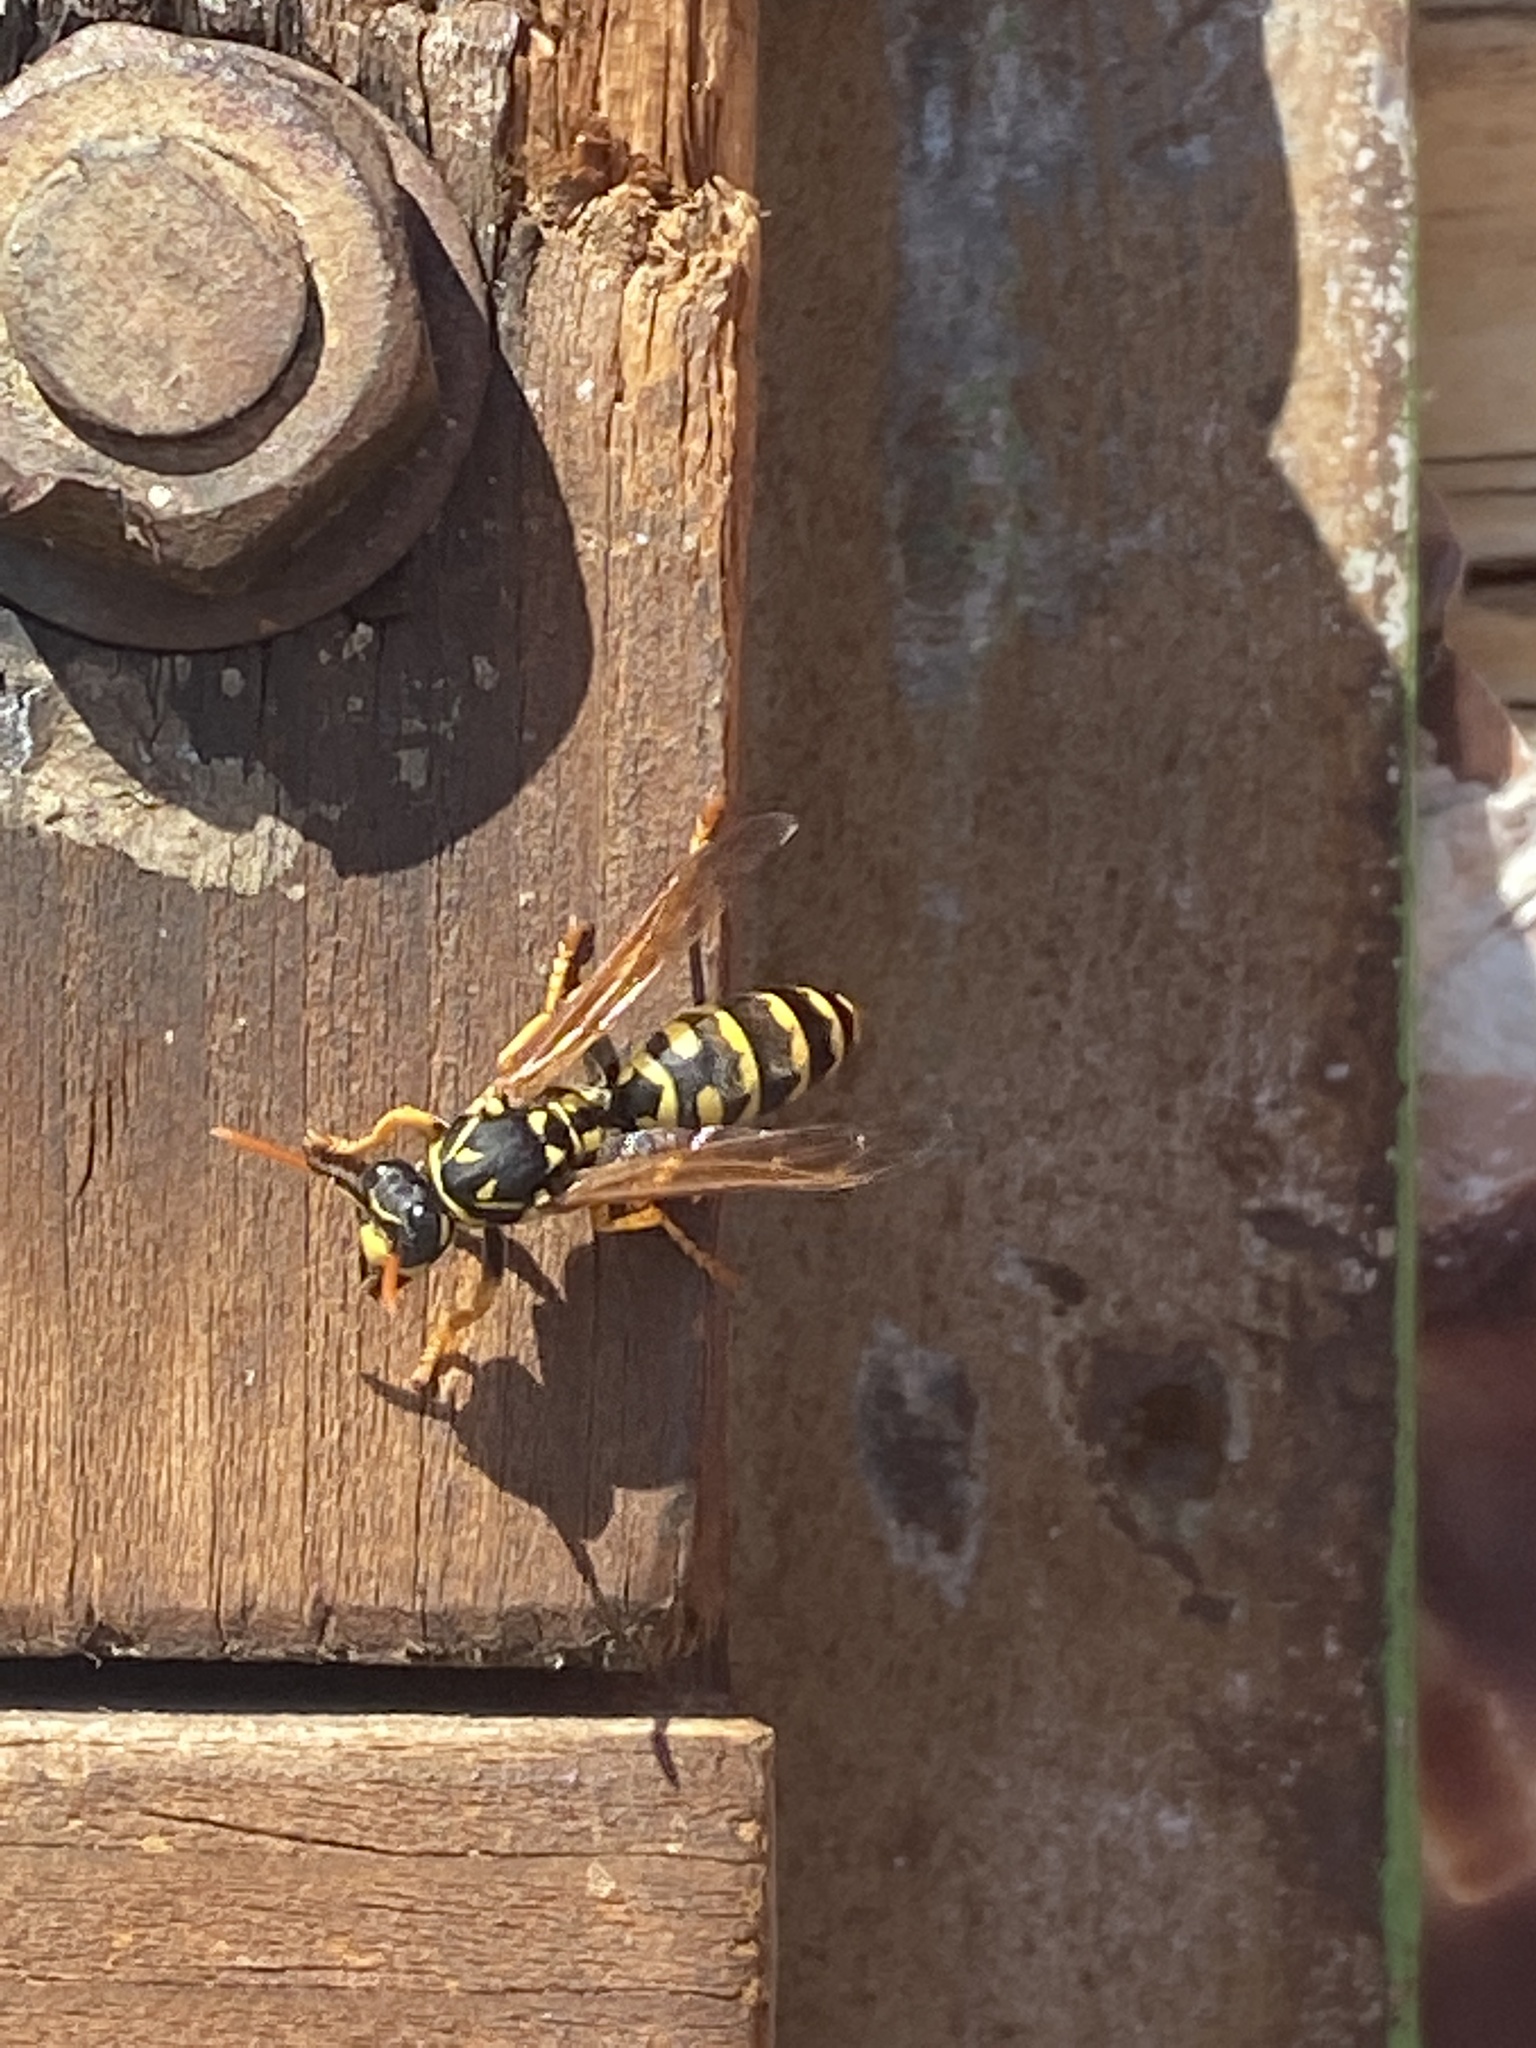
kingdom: Animalia
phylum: Arthropoda
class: Insecta
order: Hymenoptera
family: Eumenidae
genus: Polistes
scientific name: Polistes dominula
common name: Paper wasp
